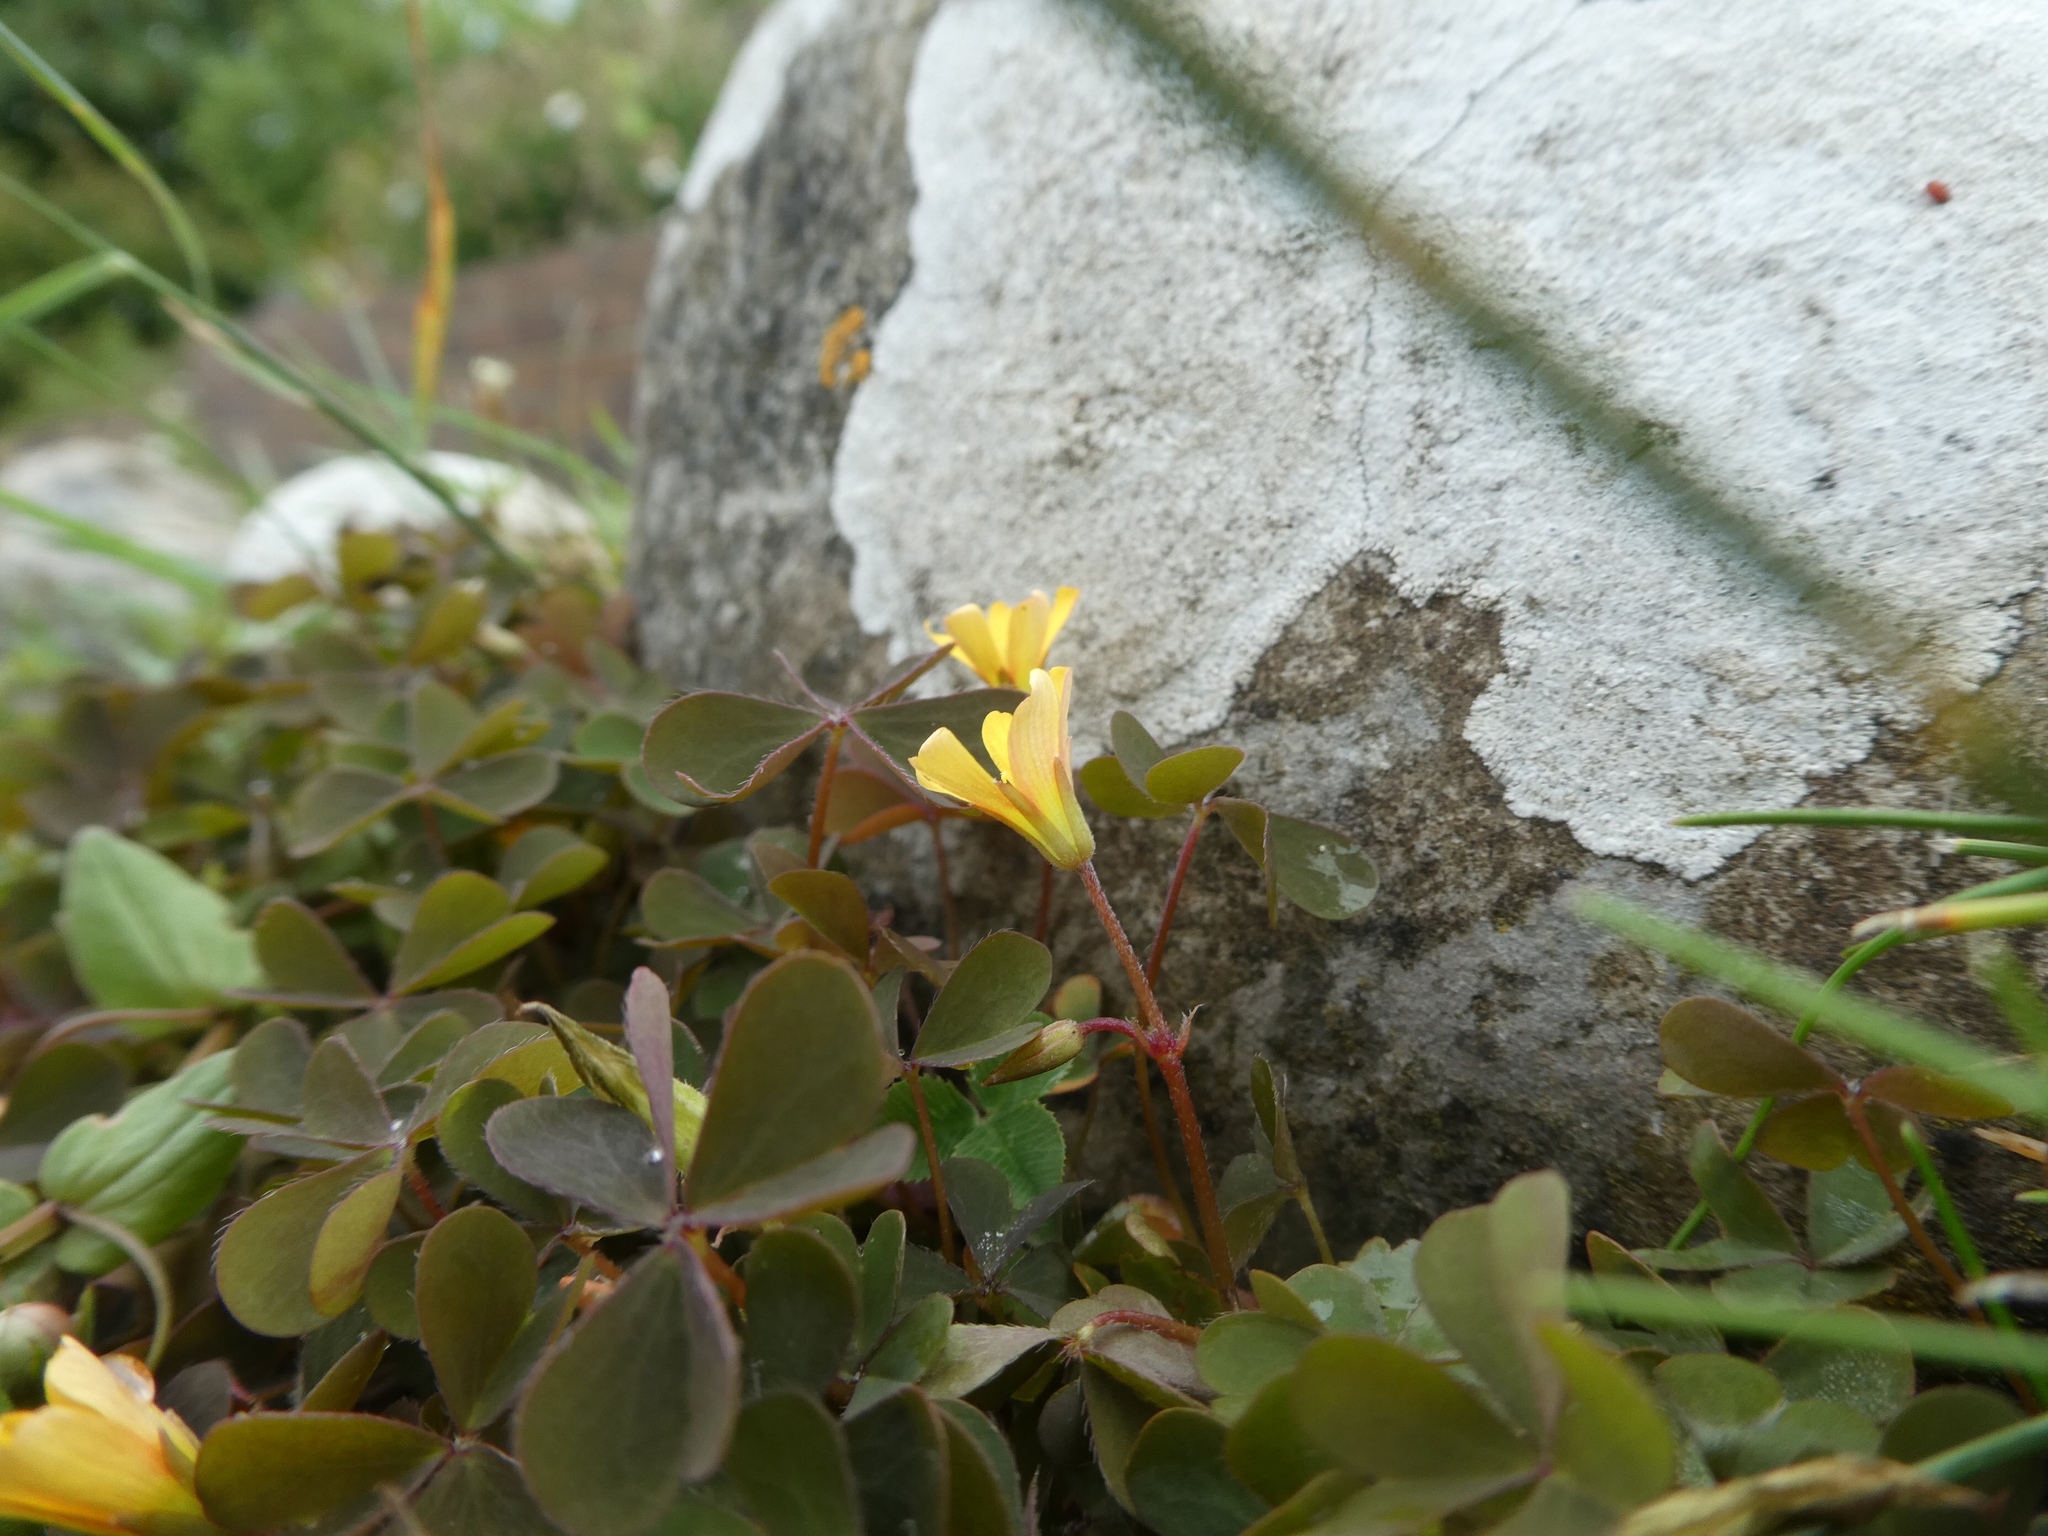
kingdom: Plantae
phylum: Tracheophyta
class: Magnoliopsida
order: Oxalidales
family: Oxalidaceae
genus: Oxalis
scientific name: Oxalis corniculata
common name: Procumbent yellow-sorrel
